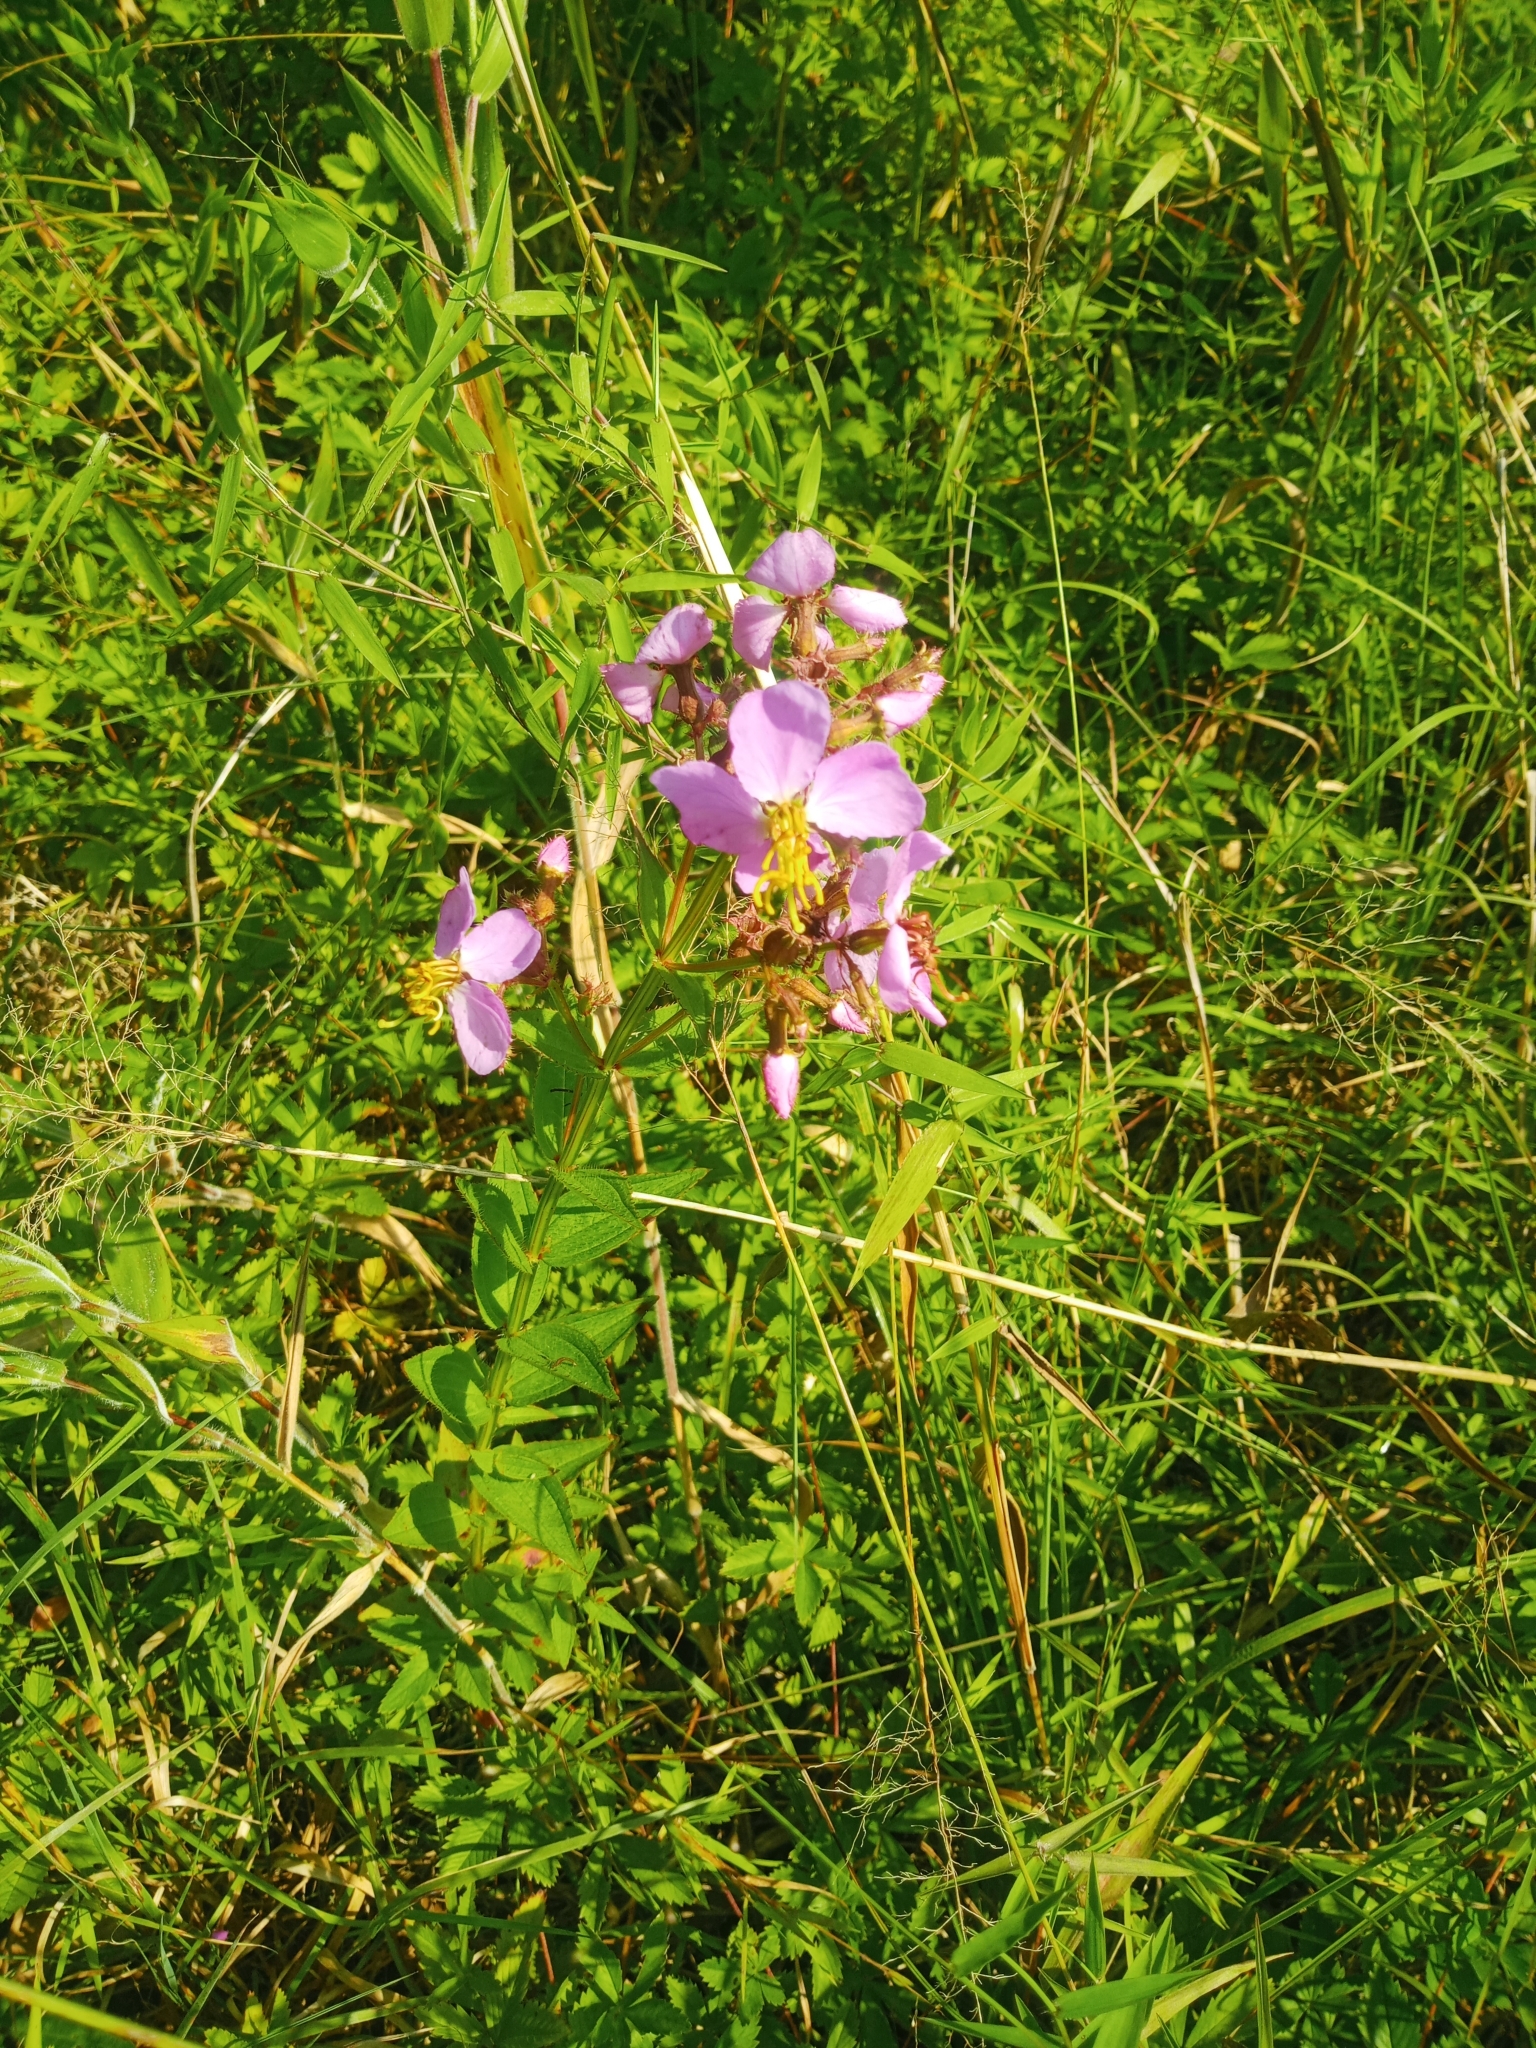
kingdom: Plantae
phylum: Tracheophyta
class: Magnoliopsida
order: Myrtales
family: Melastomataceae
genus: Rhexia
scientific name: Rhexia virginica
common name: Common meadow beauty
